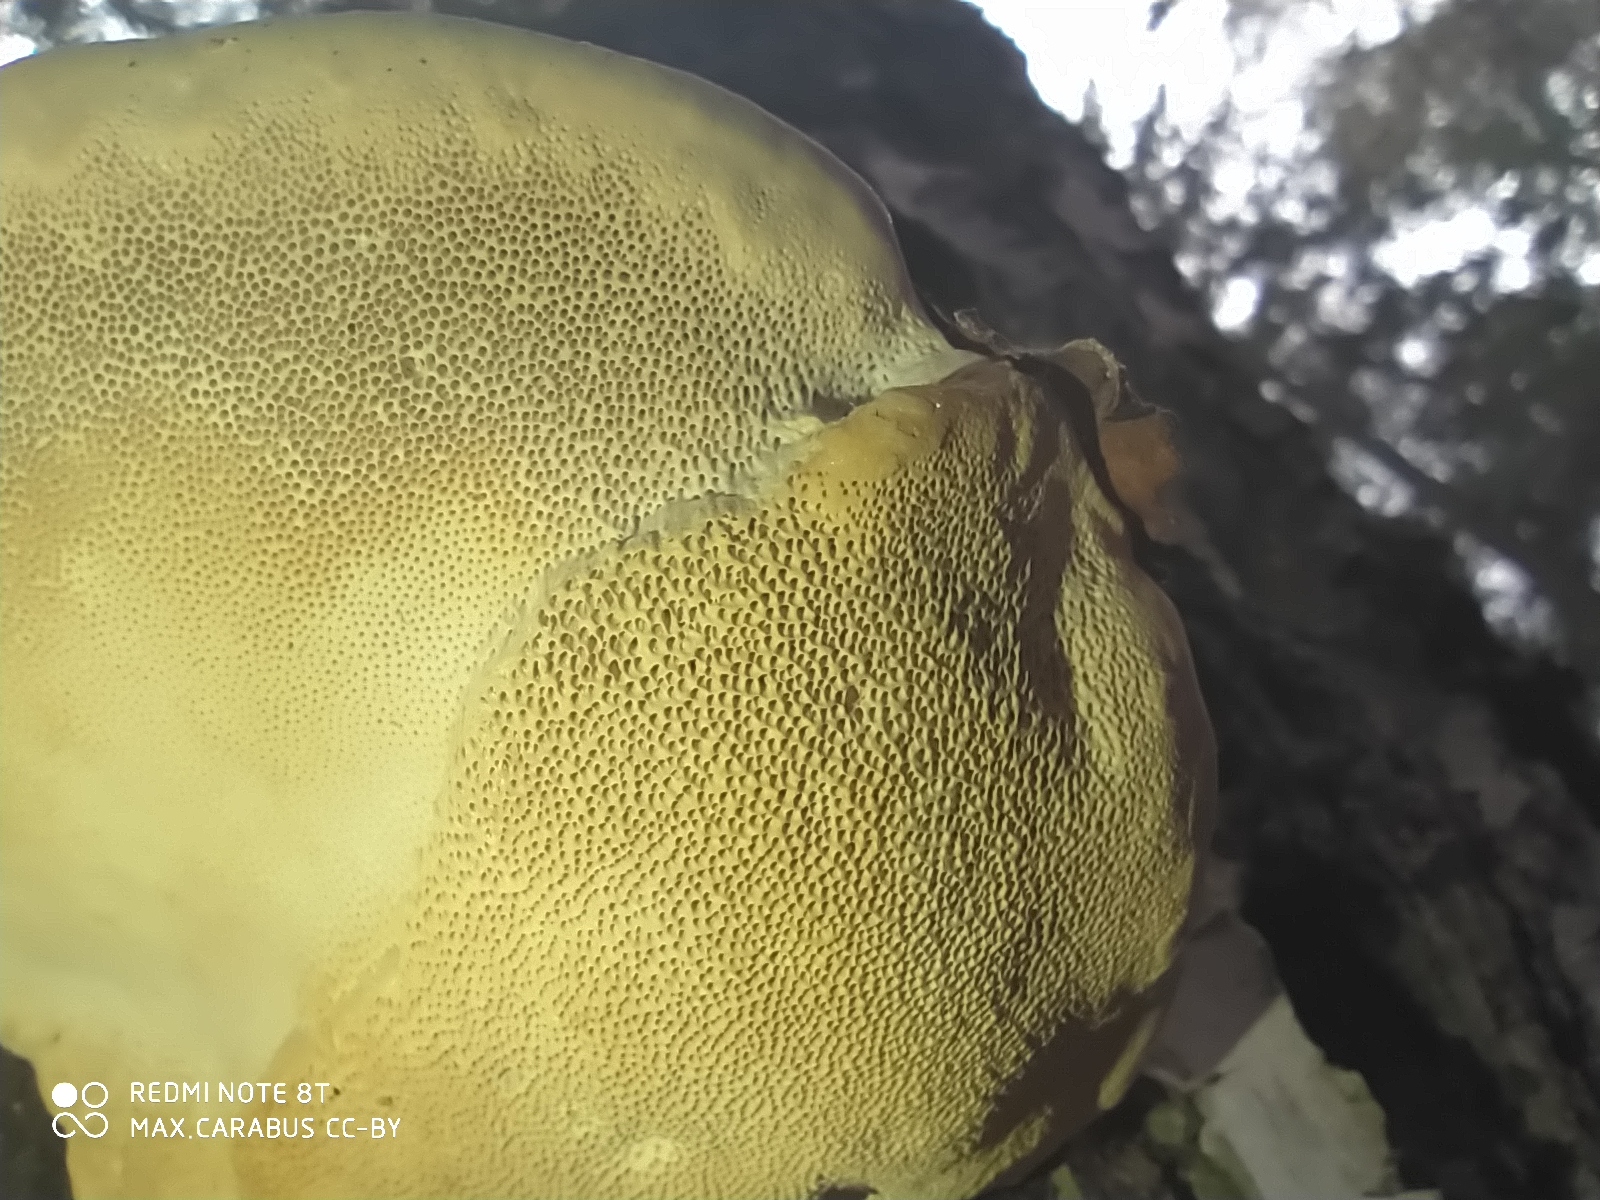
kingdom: Fungi
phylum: Basidiomycota
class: Agaricomycetes
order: Polyporales
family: Fomitopsidaceae
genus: Fomitopsis
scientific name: Fomitopsis pinicola
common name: Red-belted bracket
